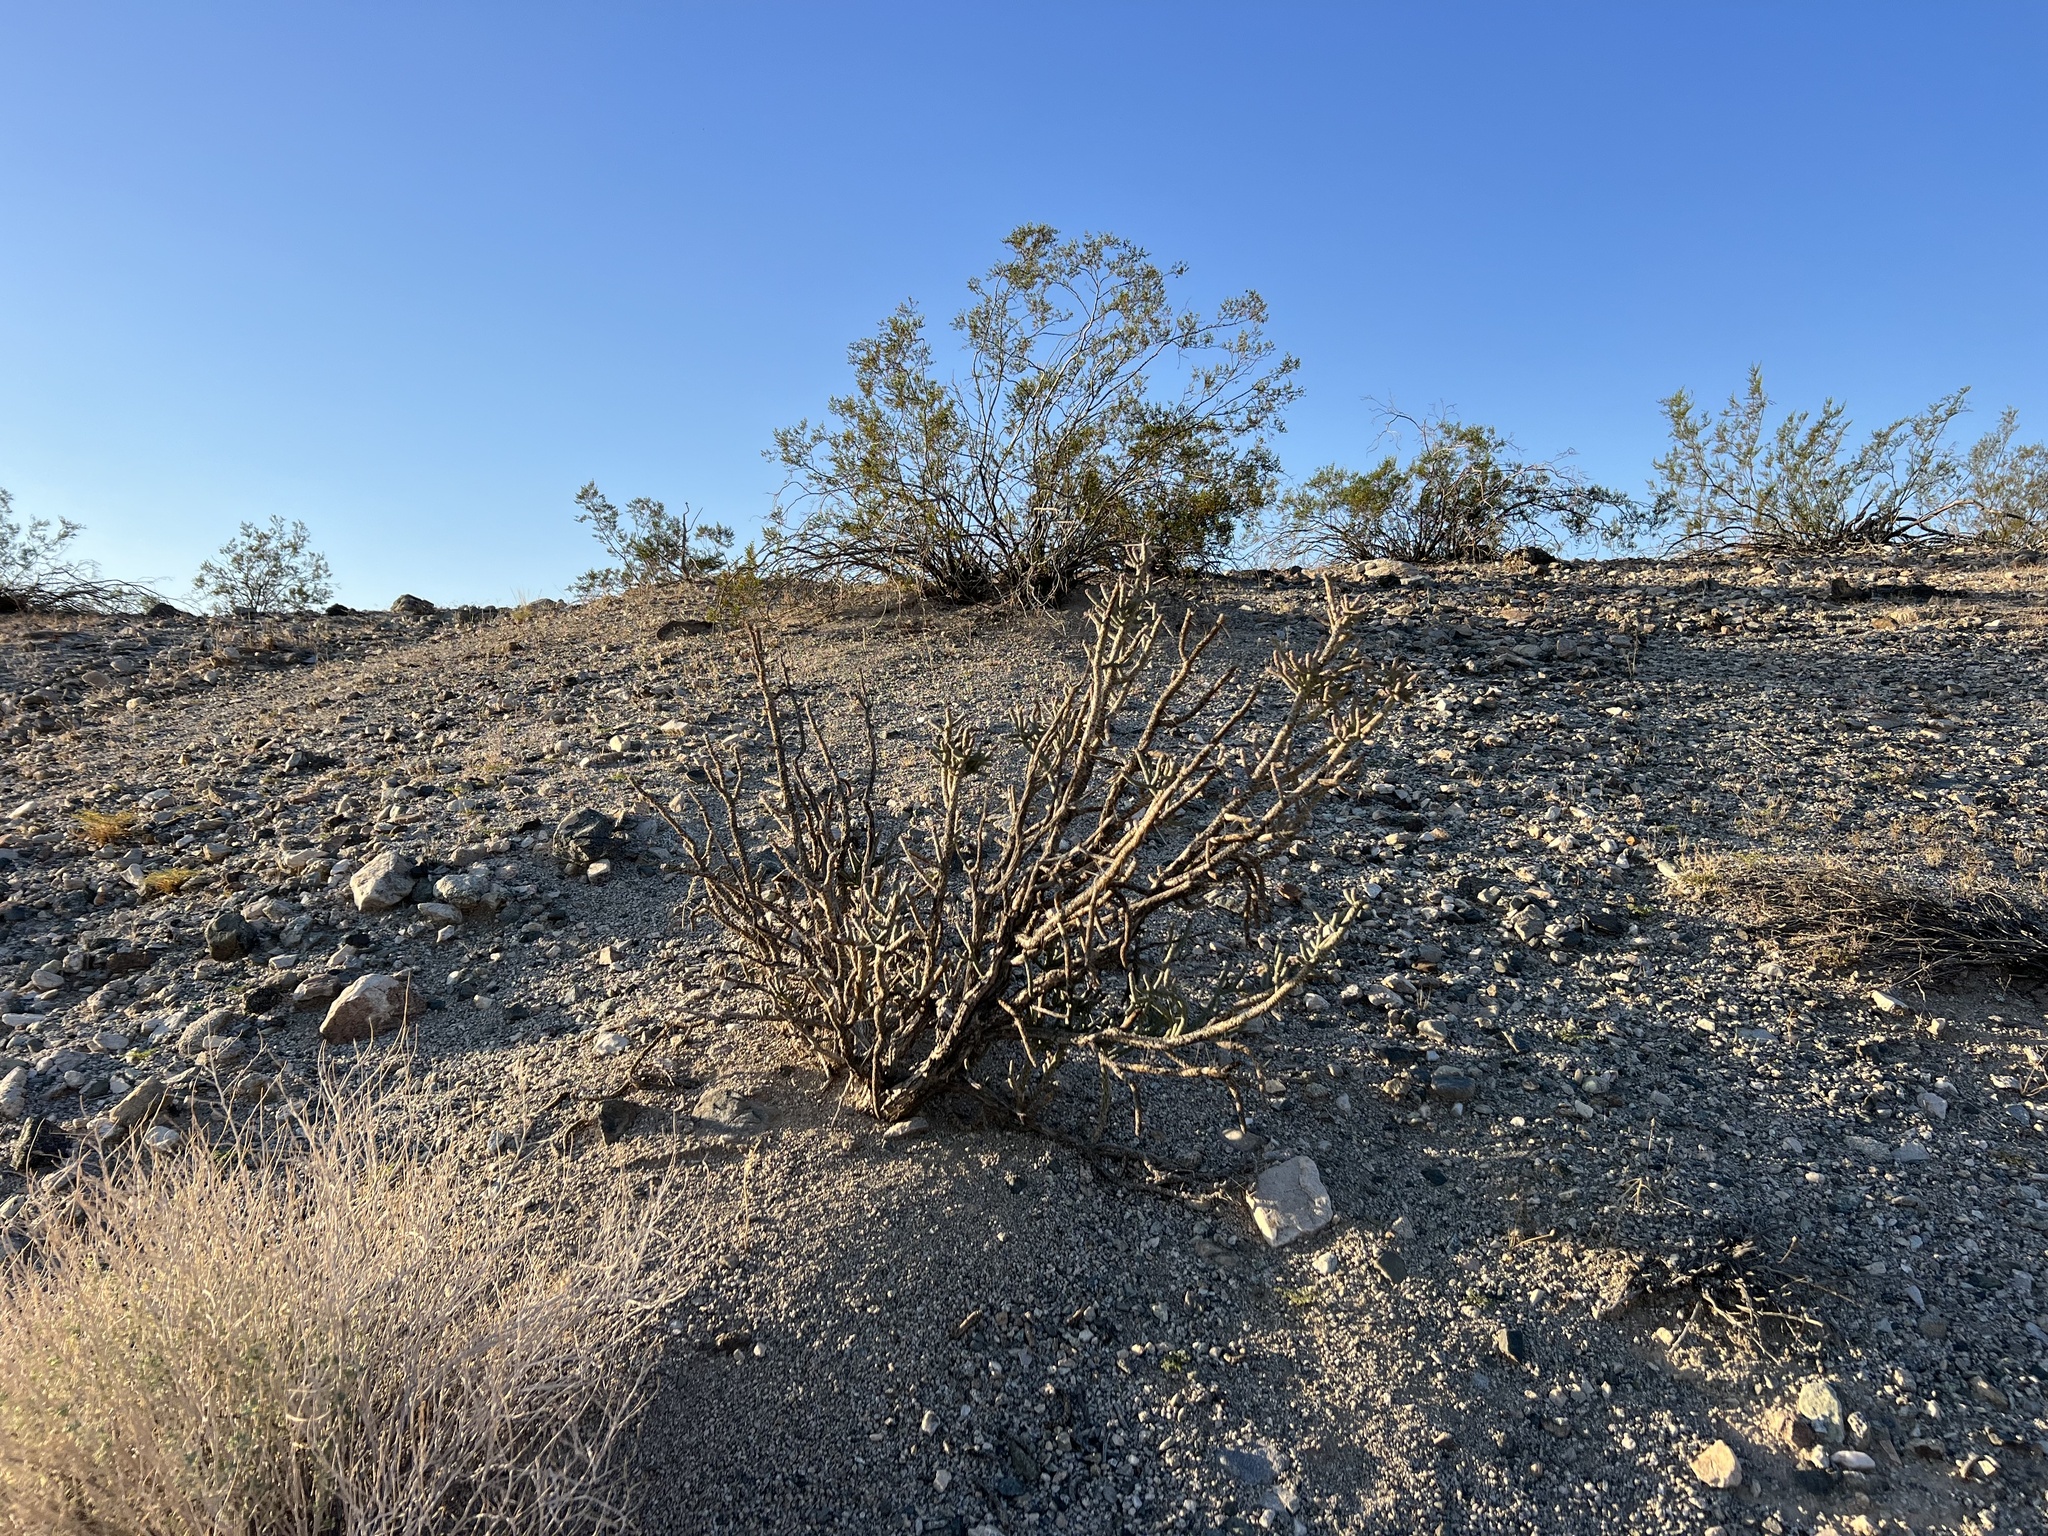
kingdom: Plantae
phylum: Tracheophyta
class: Magnoliopsida
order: Caryophyllales
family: Cactaceae
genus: Cylindropuntia
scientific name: Cylindropuntia ramosissima
